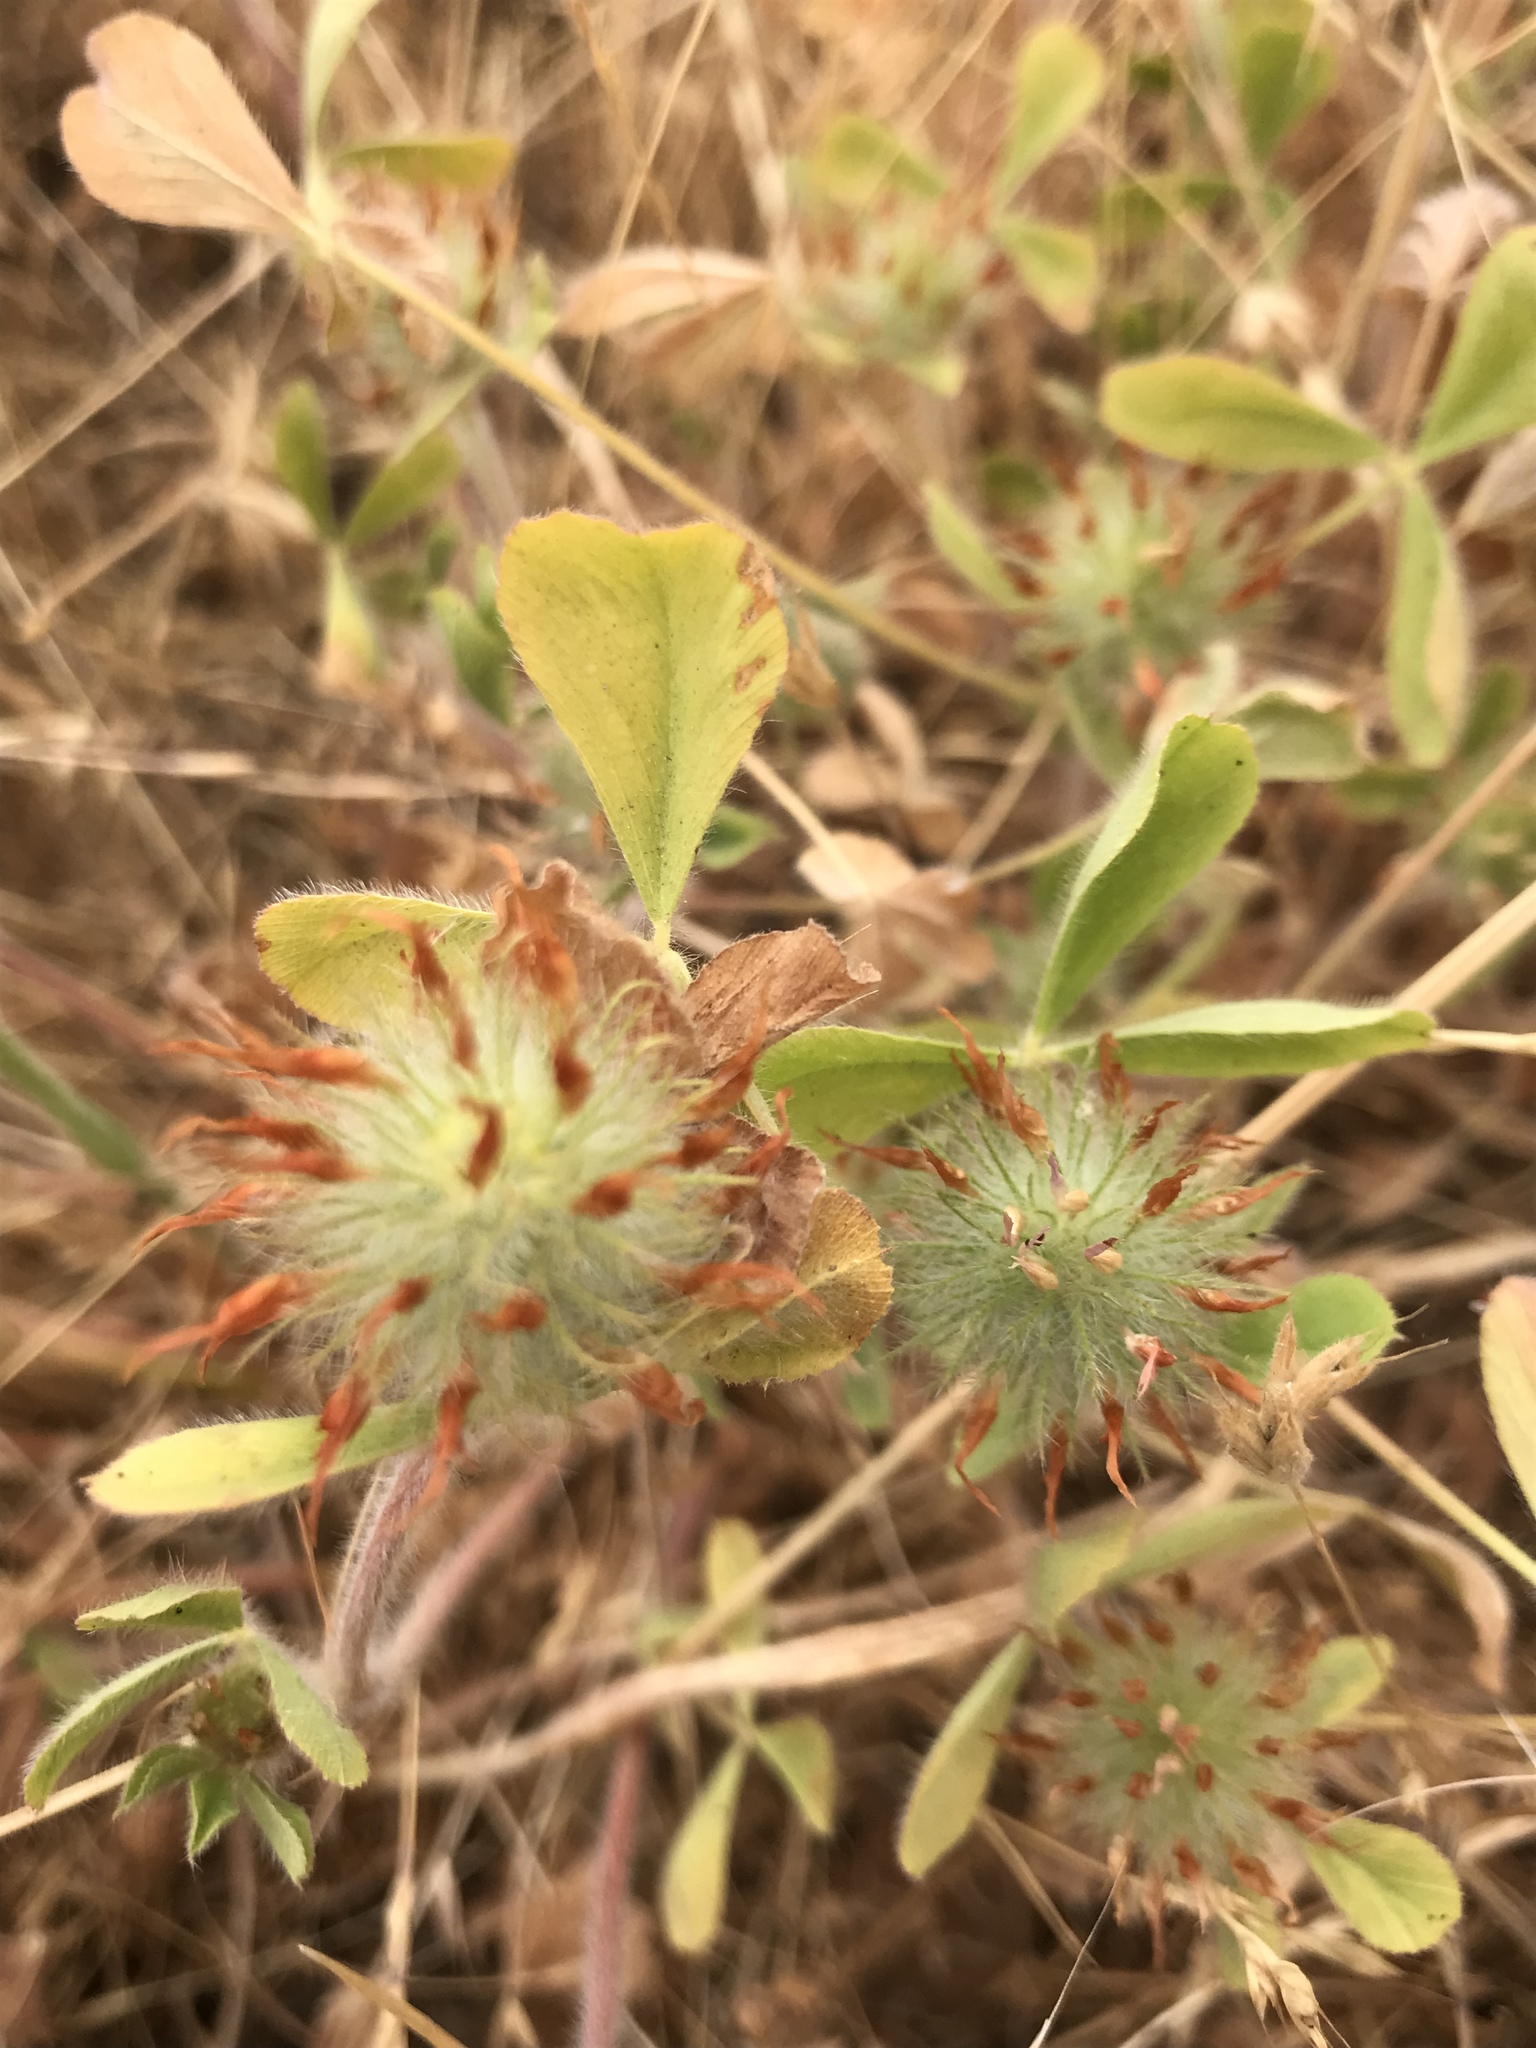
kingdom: Plantae
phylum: Tracheophyta
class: Magnoliopsida
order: Fabales
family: Fabaceae
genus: Trifolium
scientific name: Trifolium hirtum
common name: Rose clover
